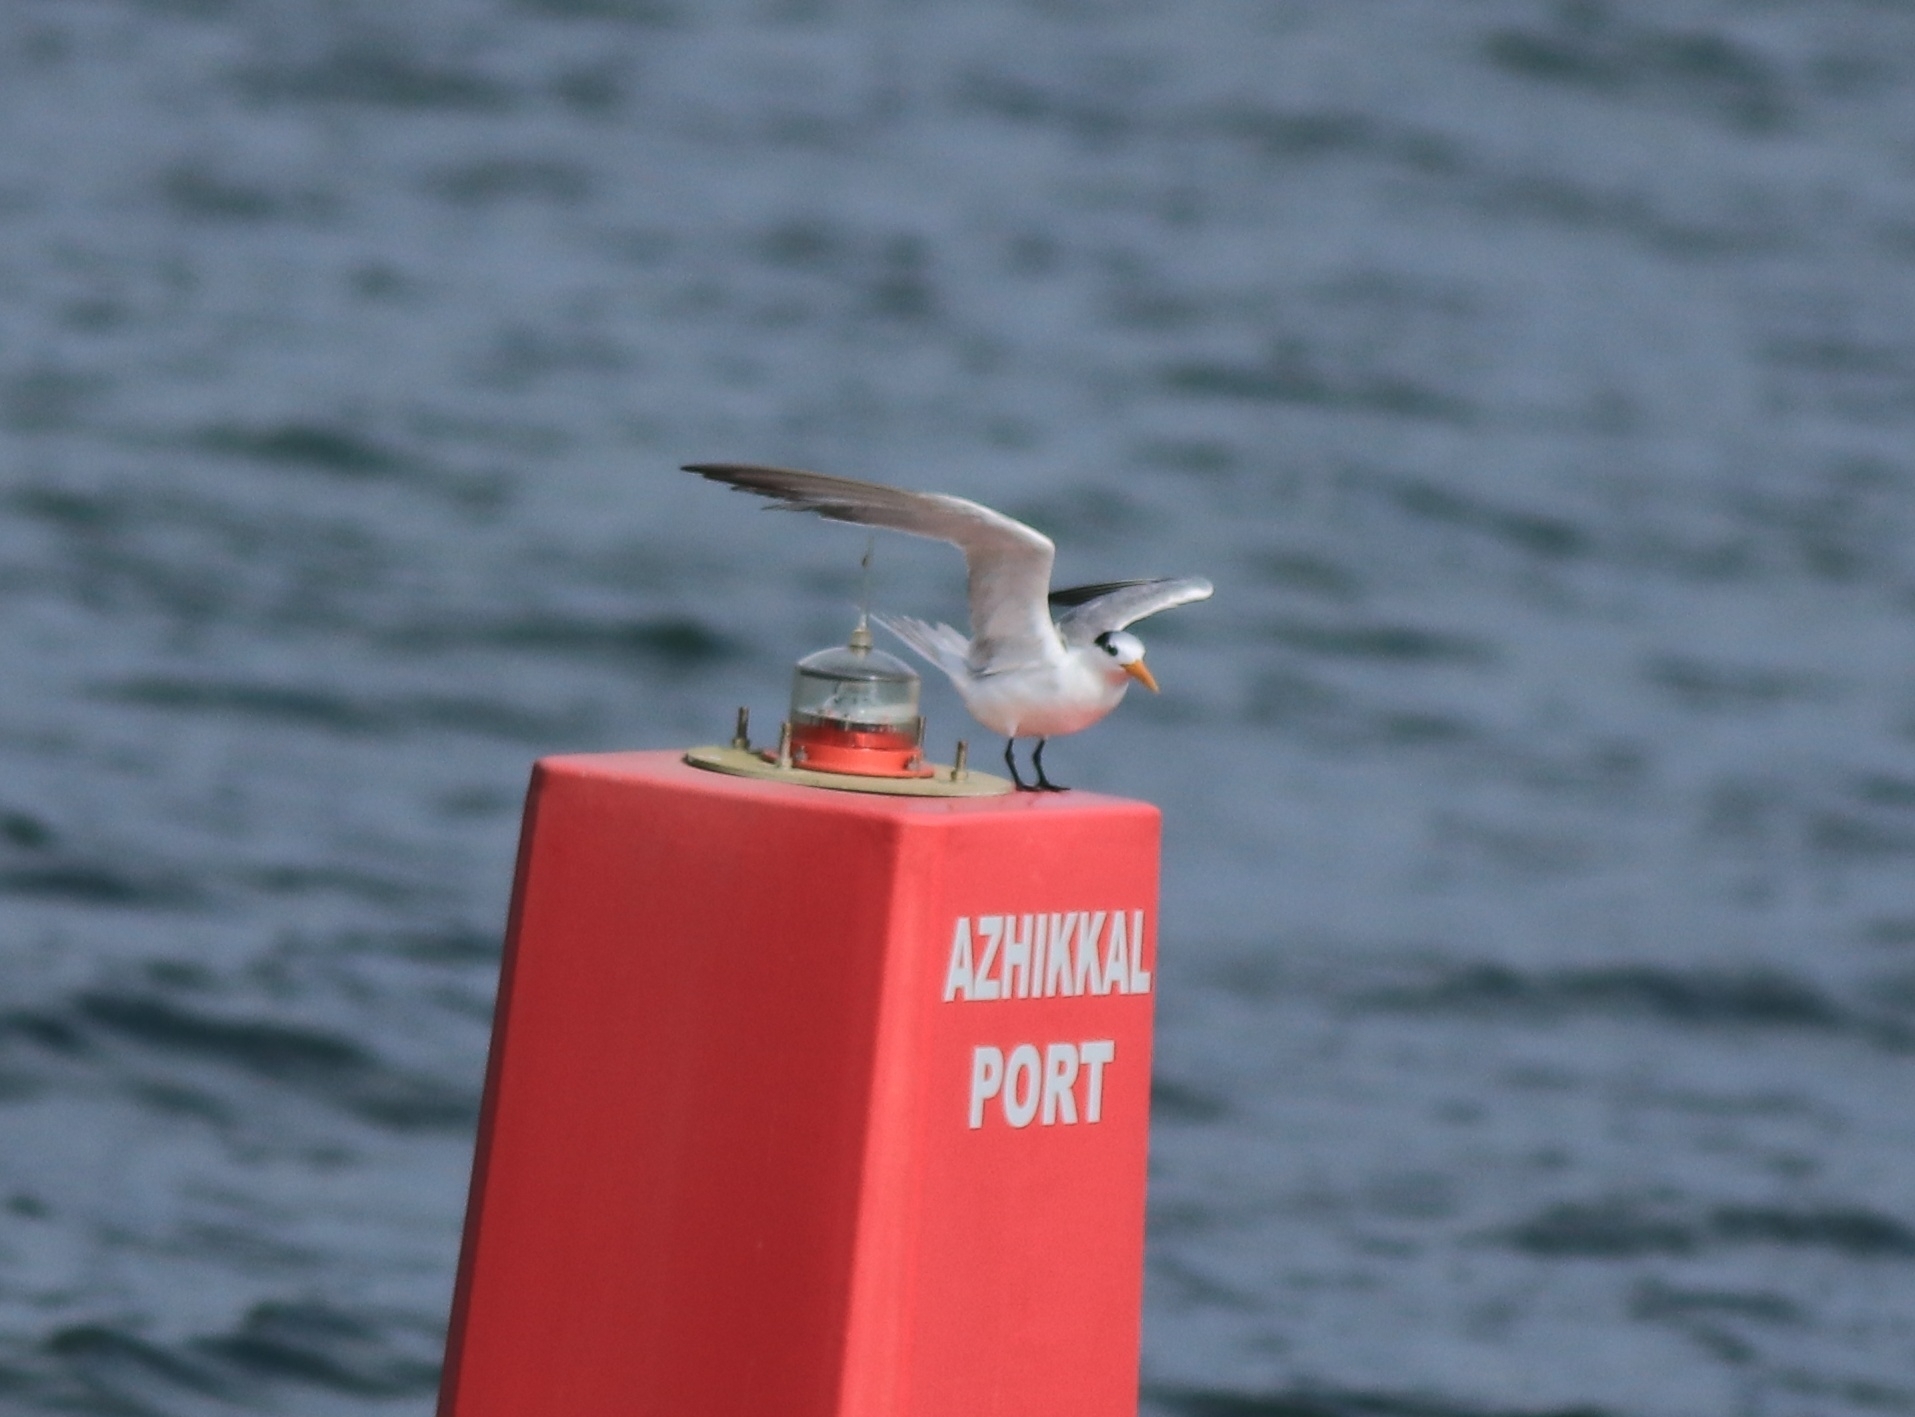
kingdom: Animalia
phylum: Chordata
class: Aves
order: Charadriiformes
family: Laridae
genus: Thalasseus
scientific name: Thalasseus bengalensis
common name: Lesser crested tern
